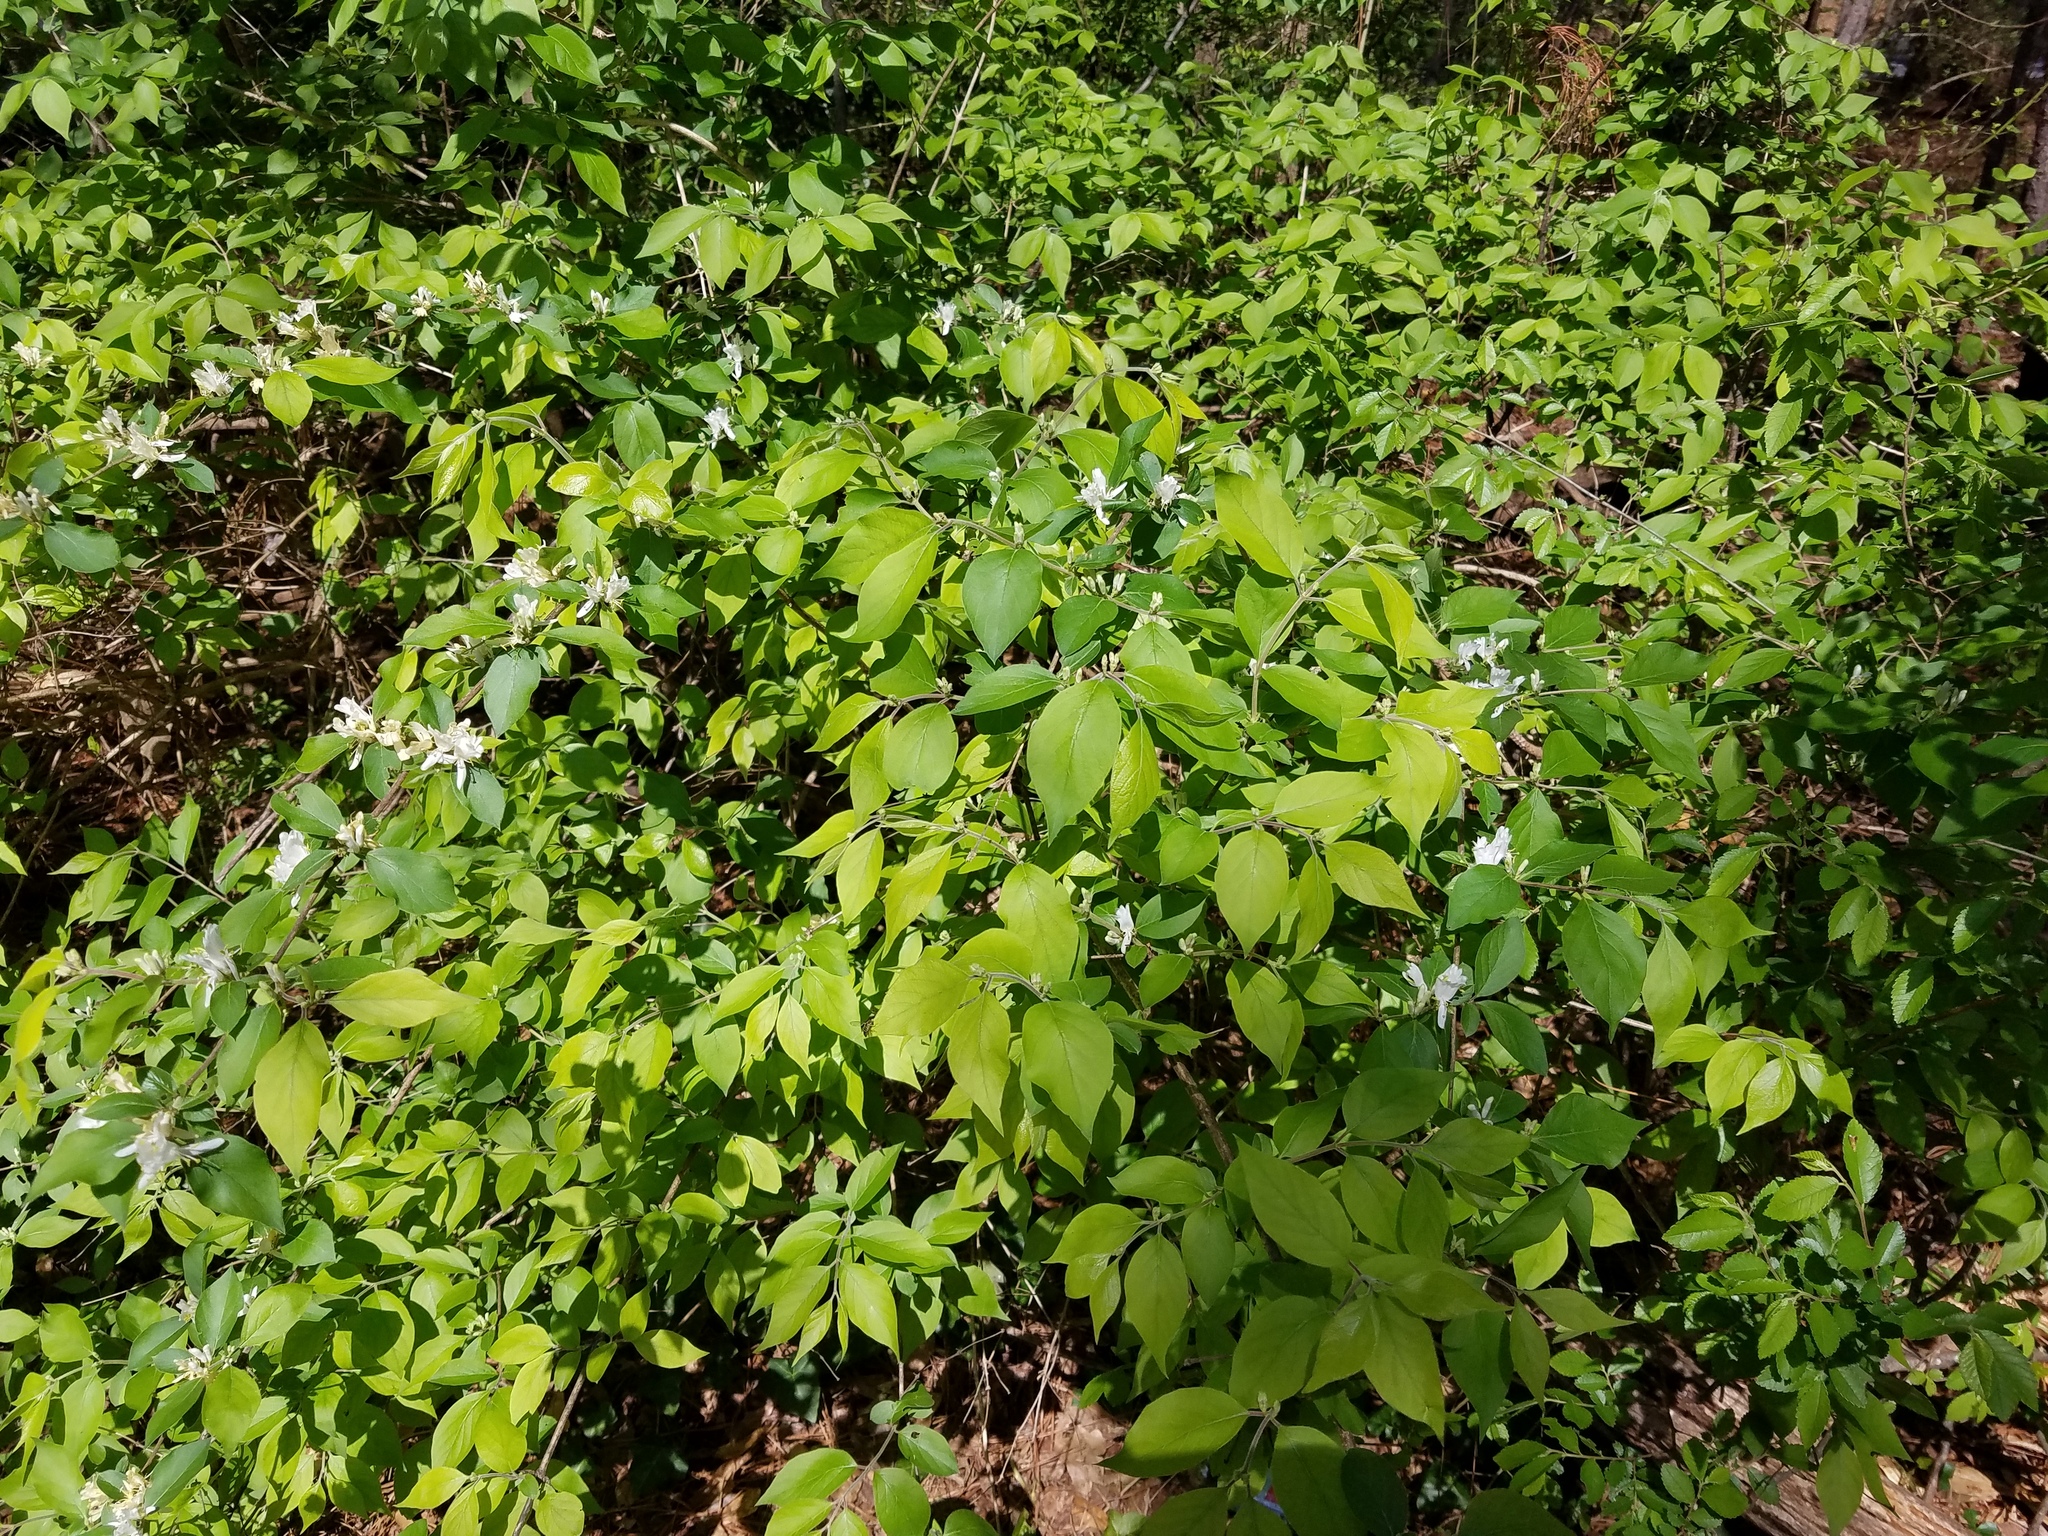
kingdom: Plantae
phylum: Tracheophyta
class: Magnoliopsida
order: Dipsacales
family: Caprifoliaceae
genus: Lonicera
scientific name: Lonicera maackii
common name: Amur honeysuckle
